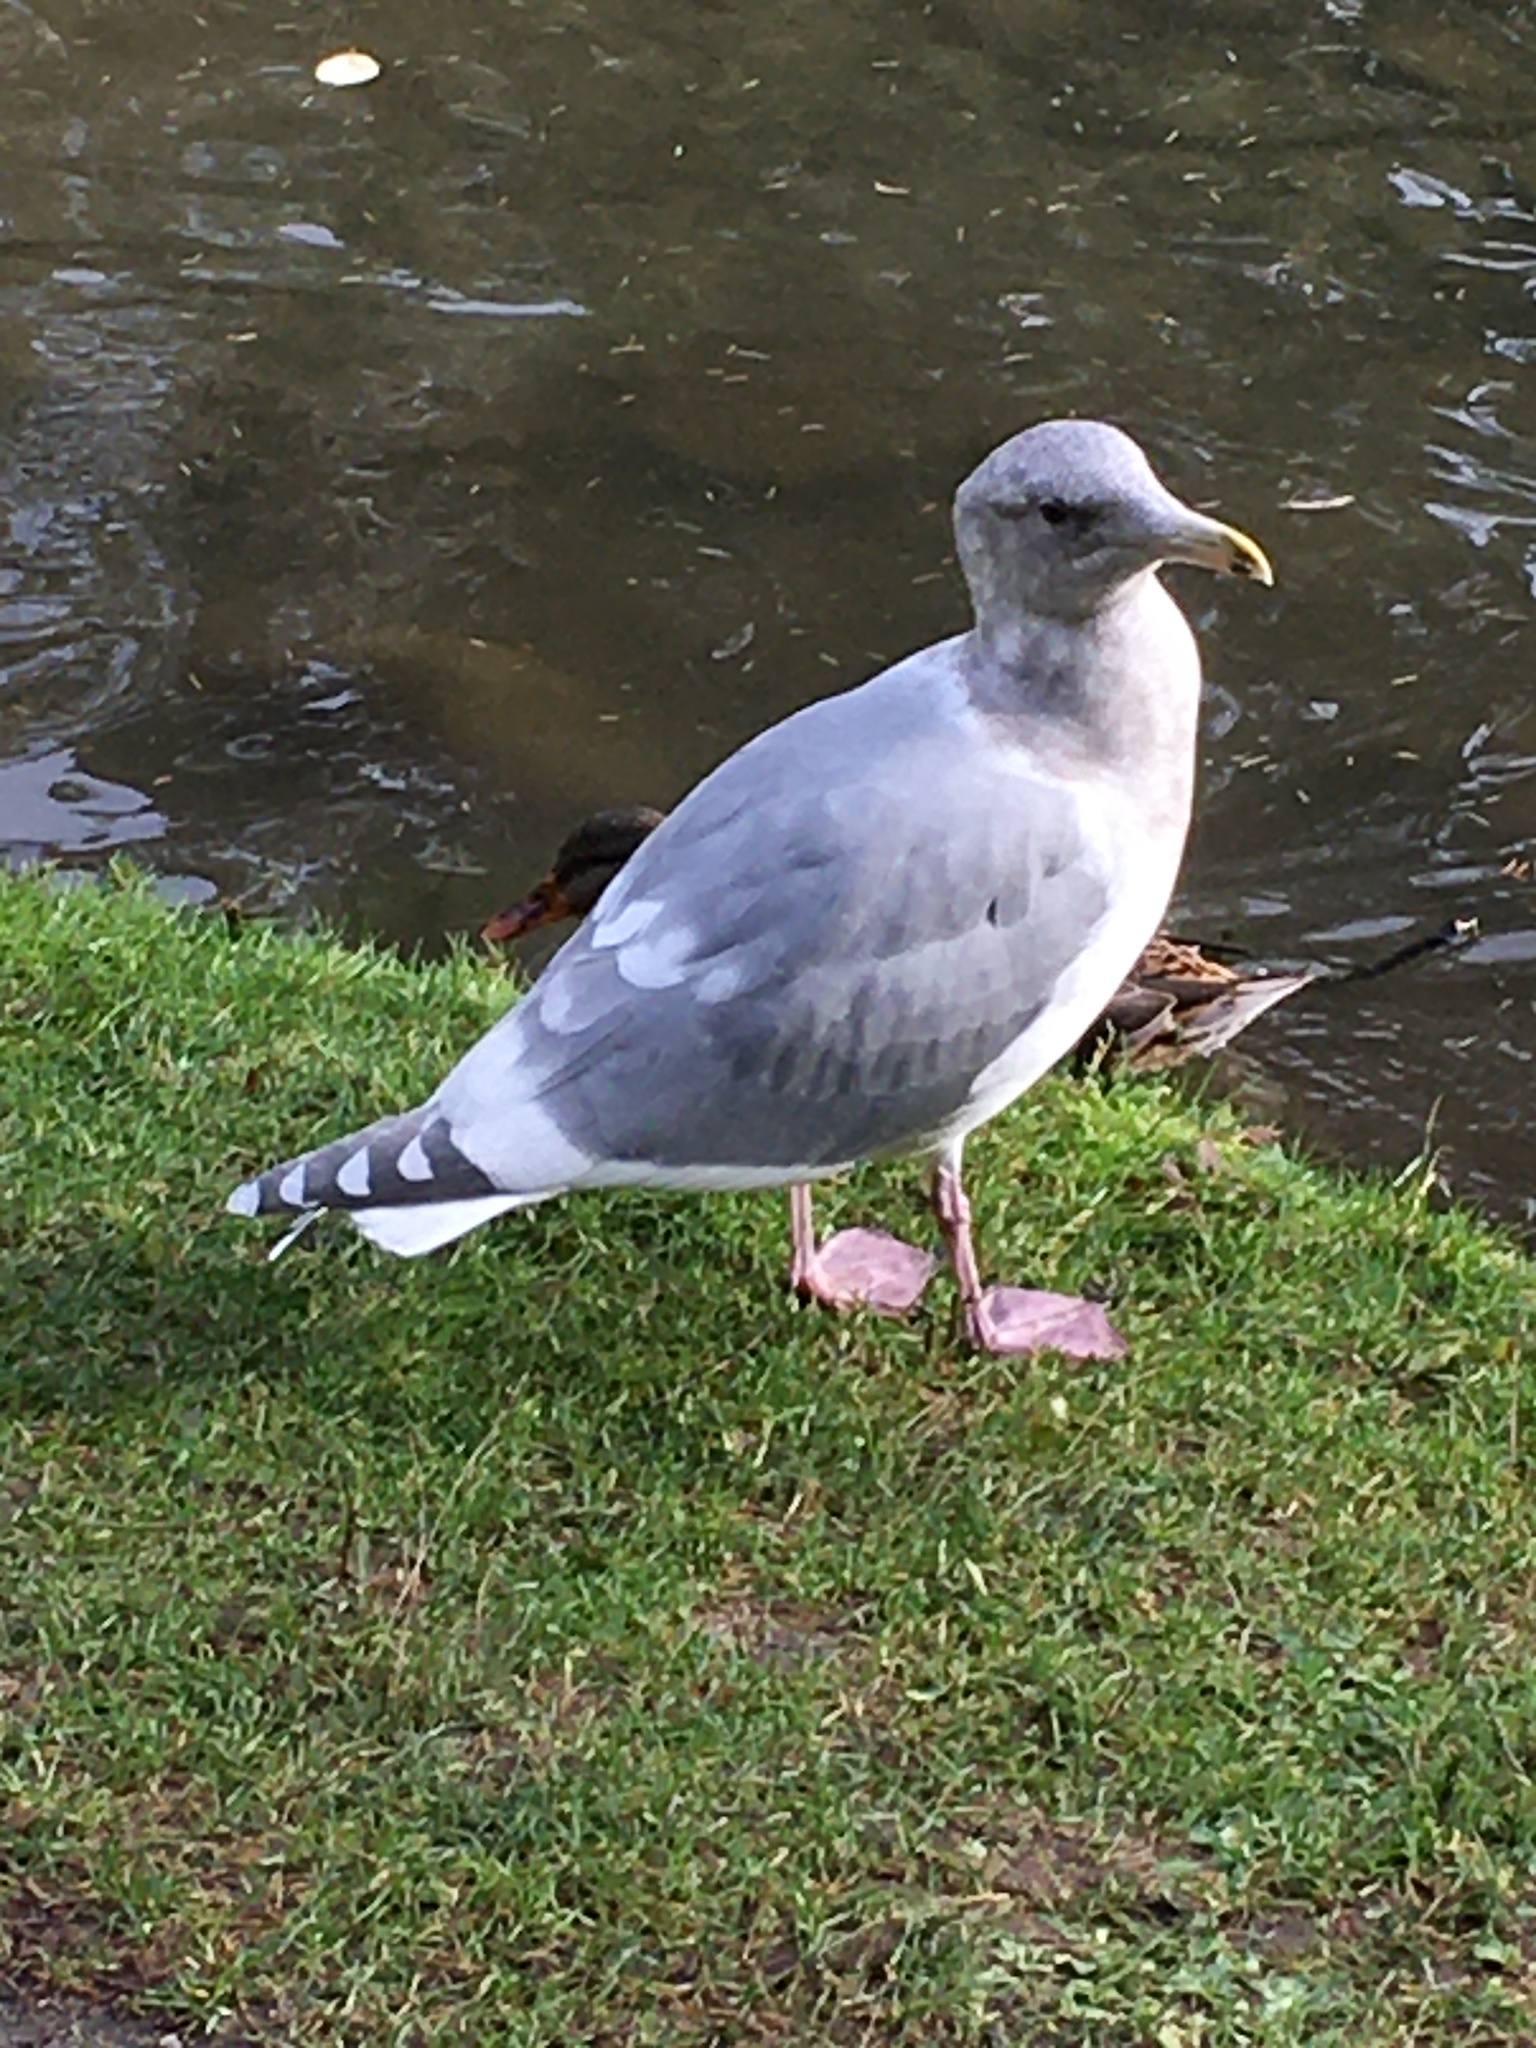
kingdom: Animalia
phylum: Chordata
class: Aves
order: Charadriiformes
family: Laridae
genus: Larus
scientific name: Larus
